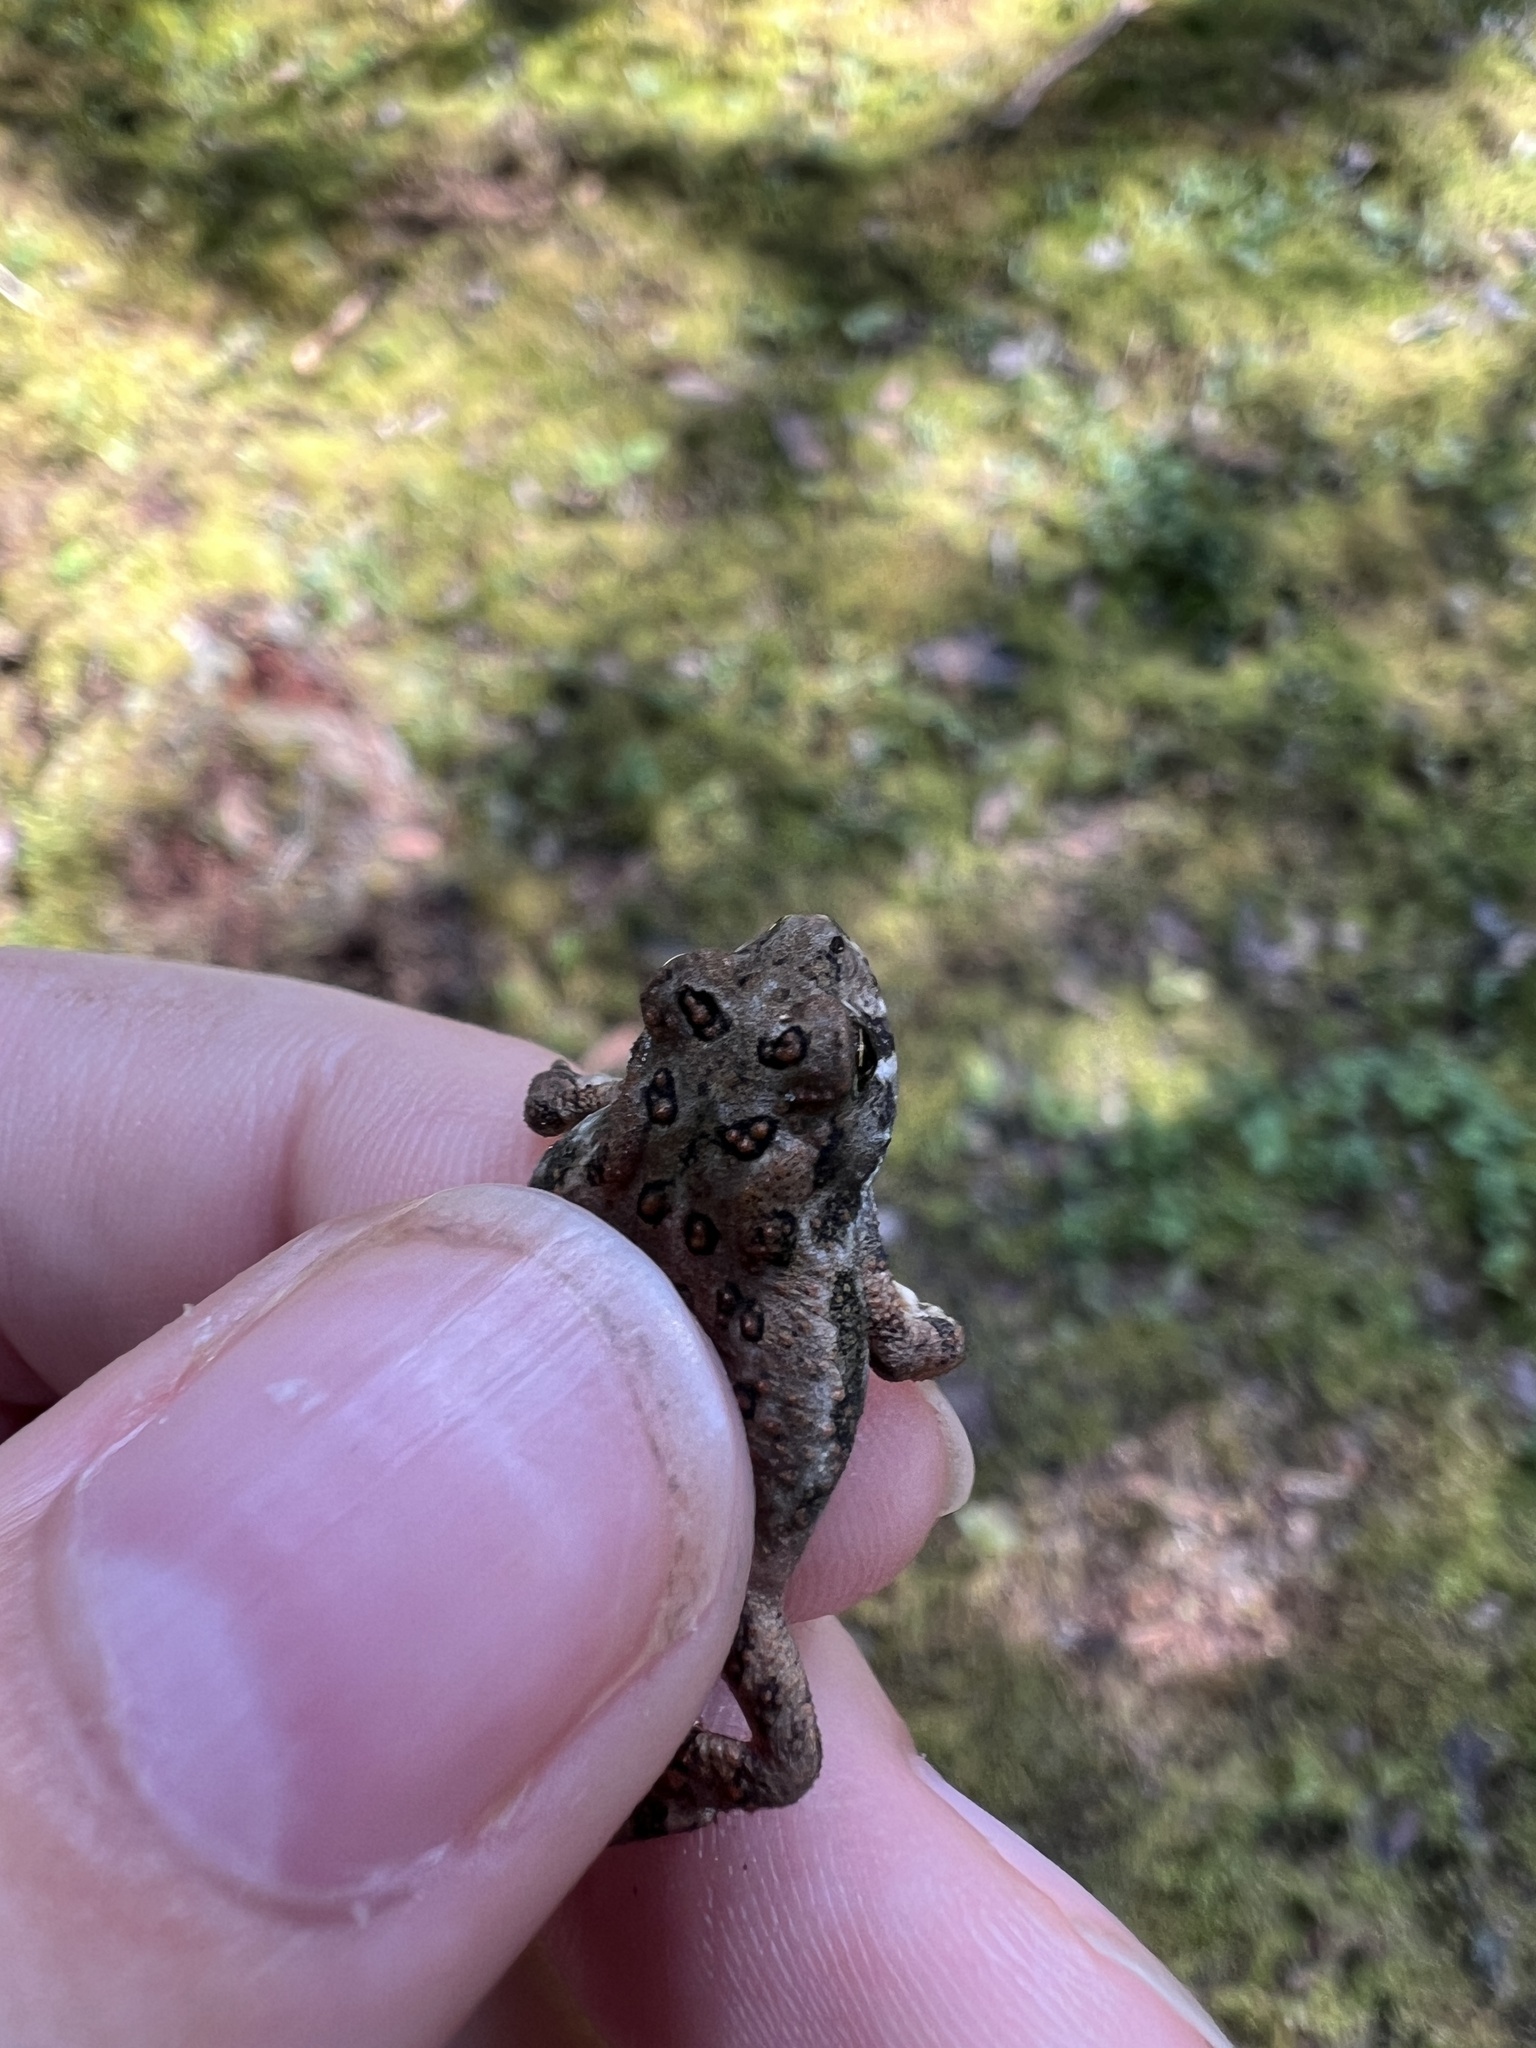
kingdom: Animalia
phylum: Chordata
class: Amphibia
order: Anura
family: Bufonidae
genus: Anaxyrus
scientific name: Anaxyrus americanus
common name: American toad
